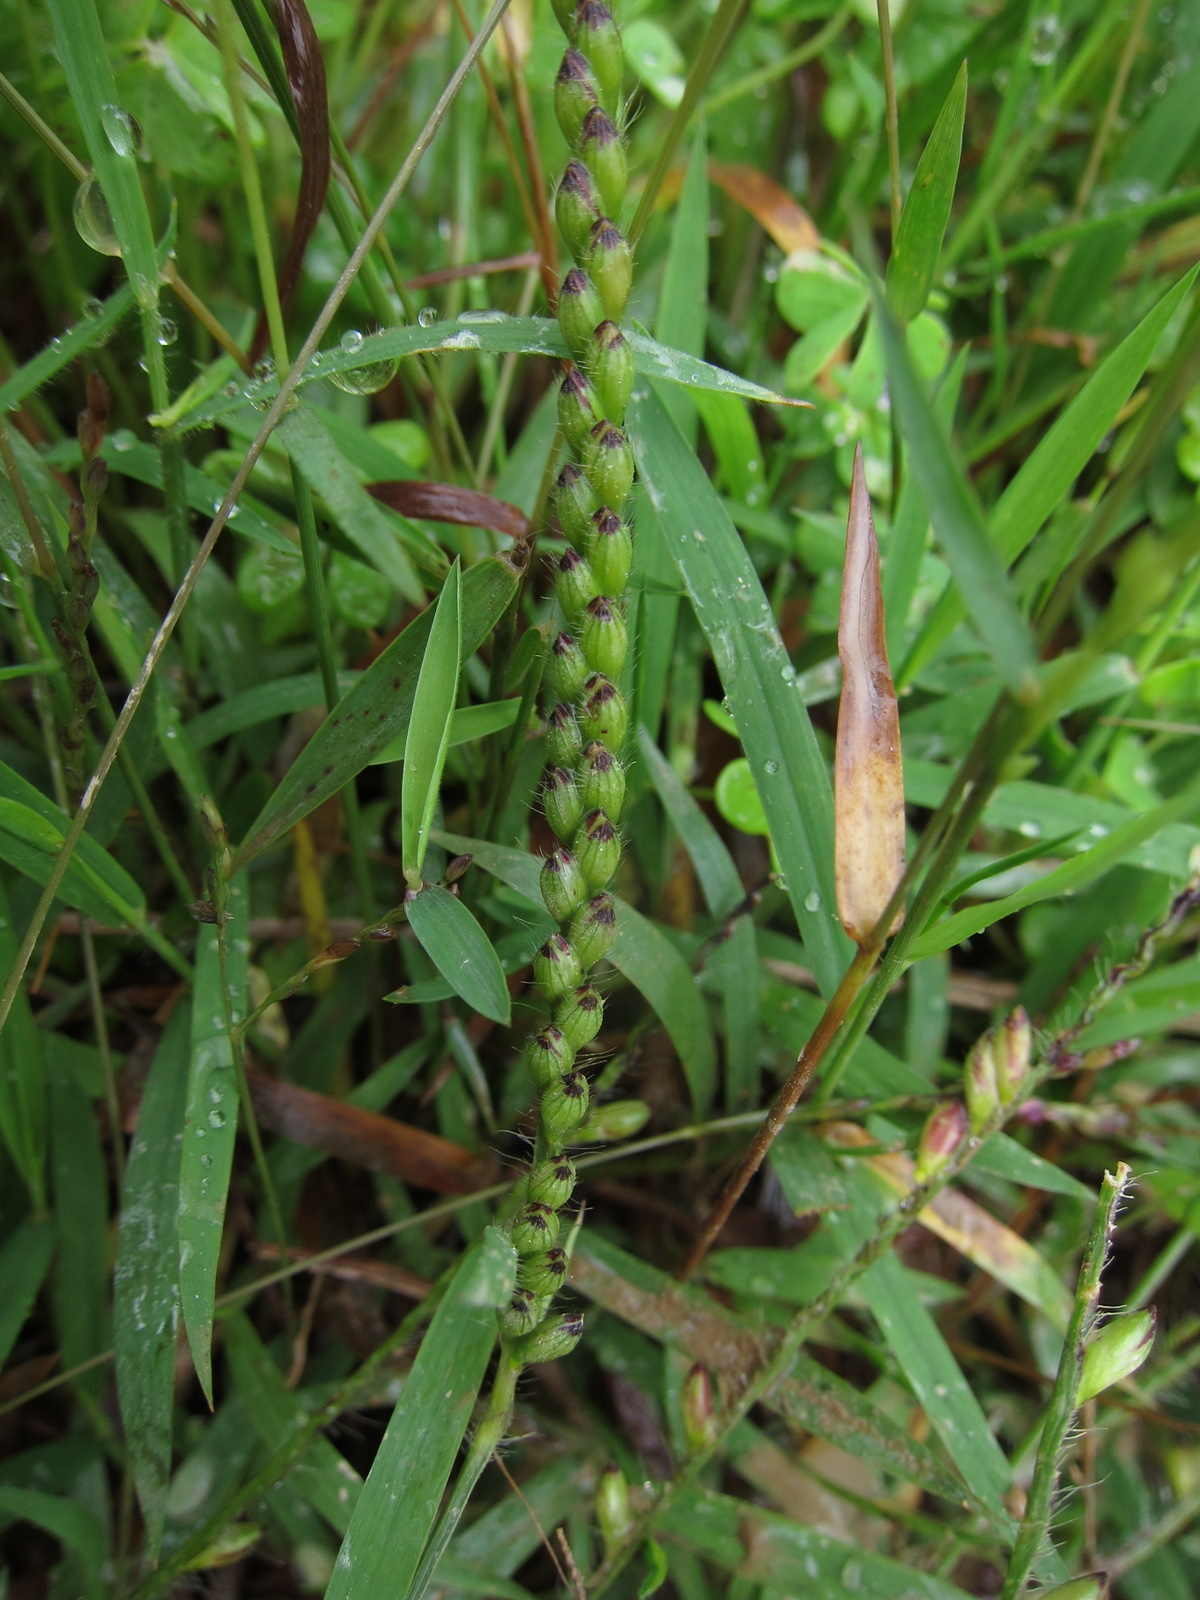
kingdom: Plantae
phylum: Tracheophyta
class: Liliopsida
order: Poales
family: Poaceae
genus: Urochloa
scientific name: Urochloa brizantha
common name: Palisade signalgrass
